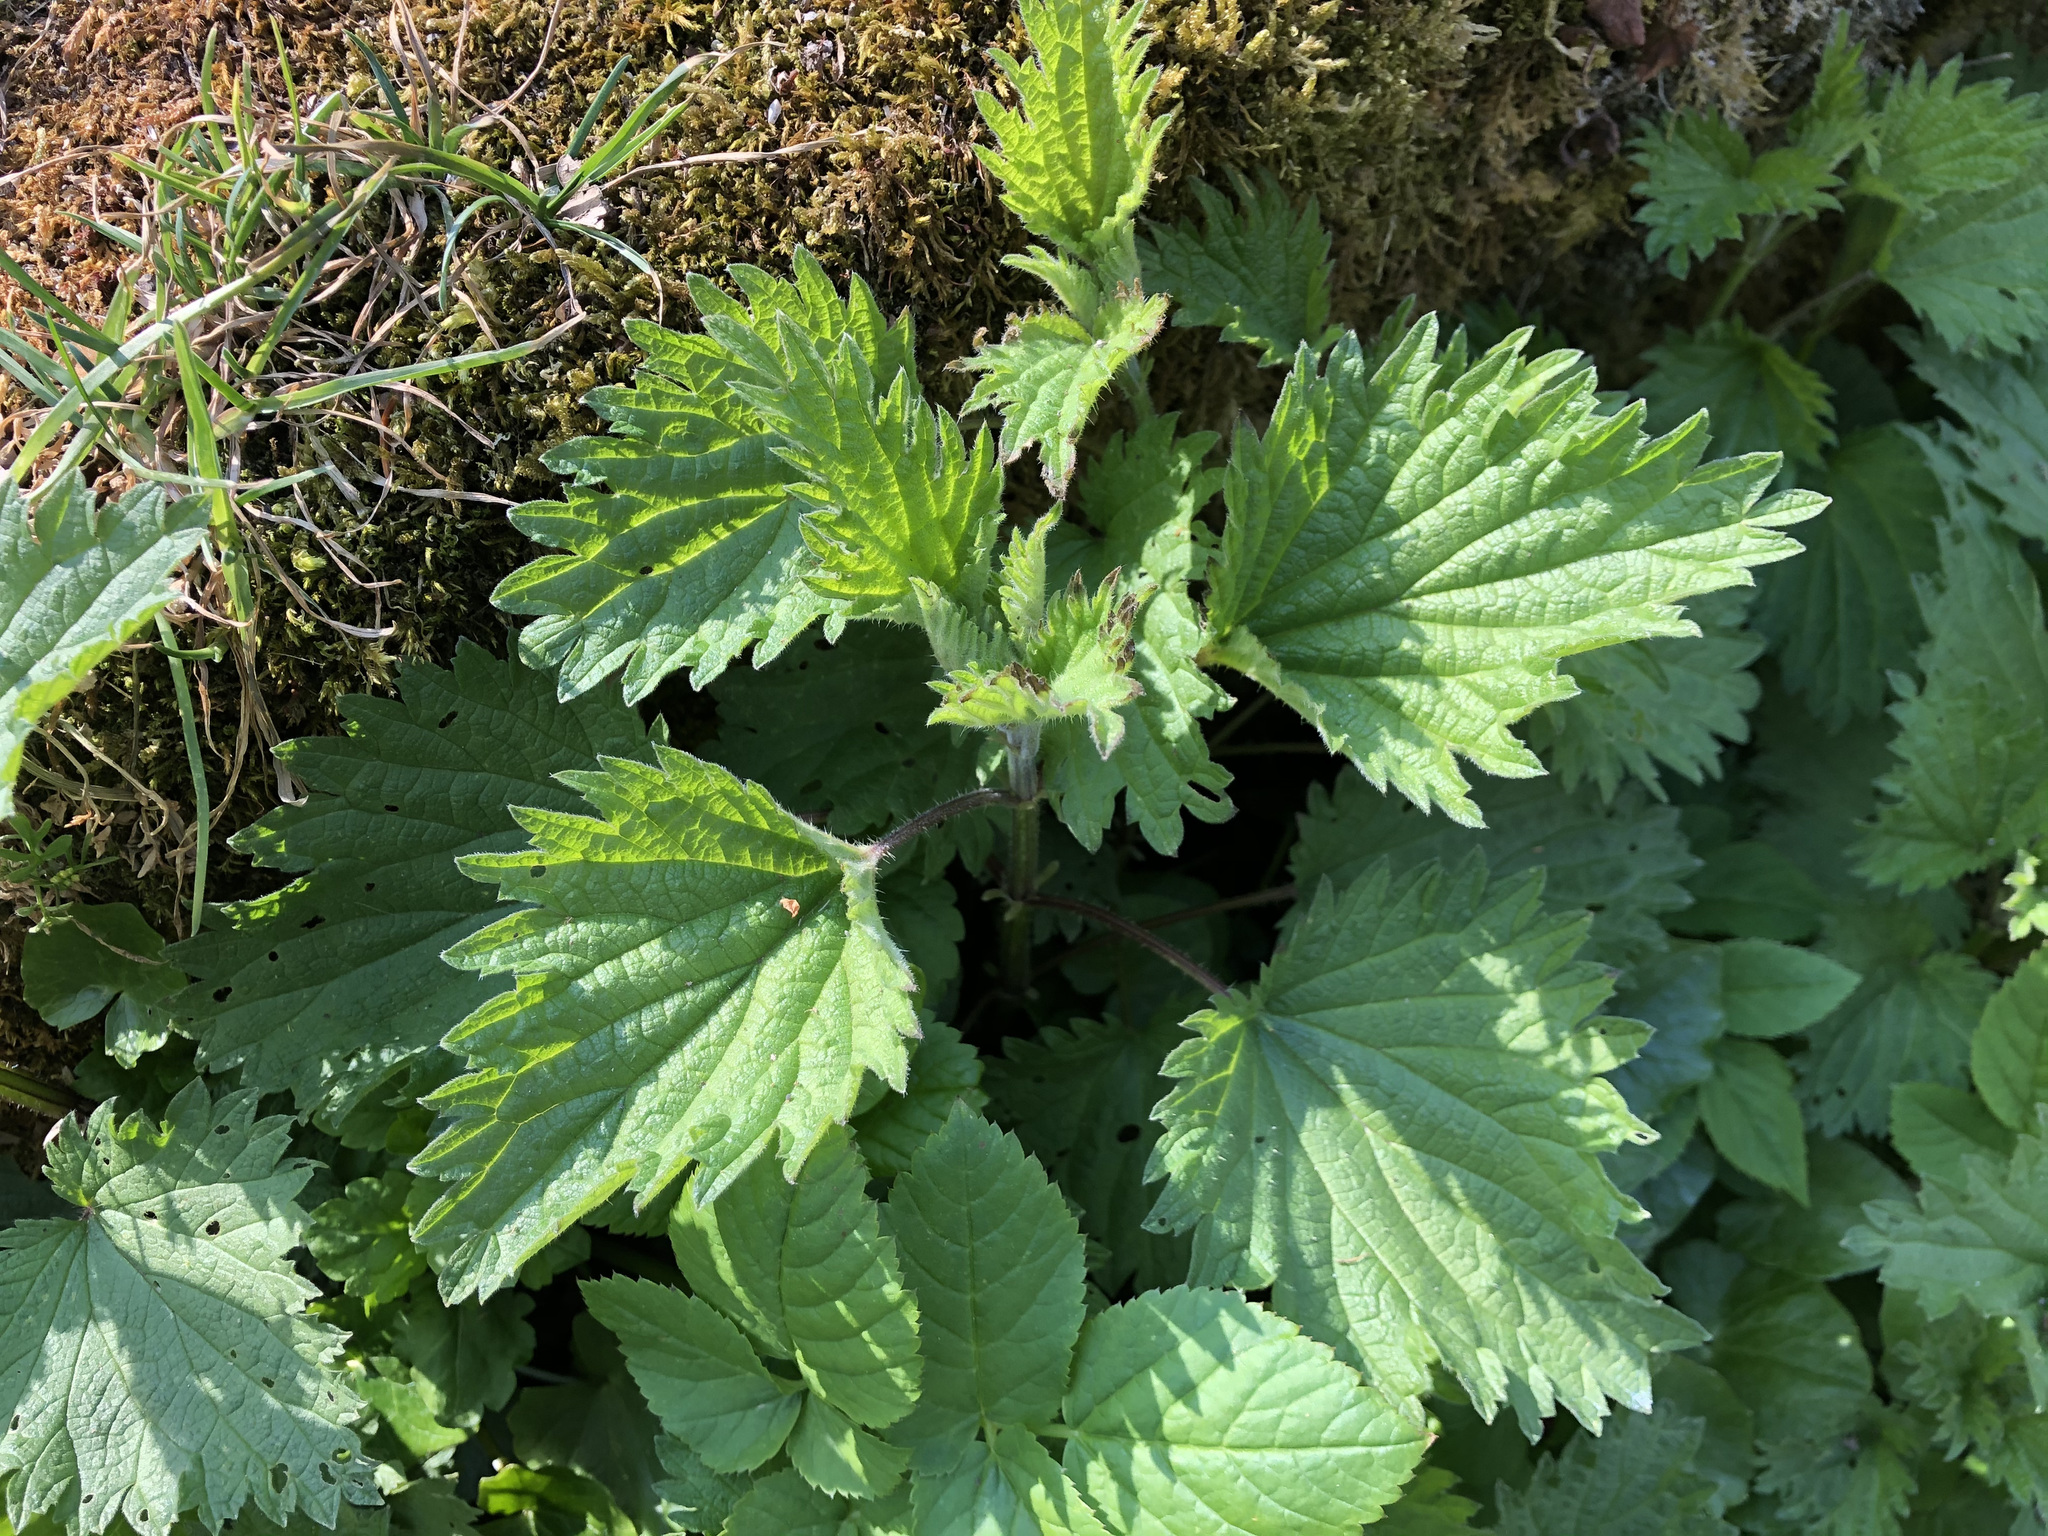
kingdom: Plantae
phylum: Tracheophyta
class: Magnoliopsida
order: Rosales
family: Urticaceae
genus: Urtica
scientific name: Urtica dioica
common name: Common nettle
